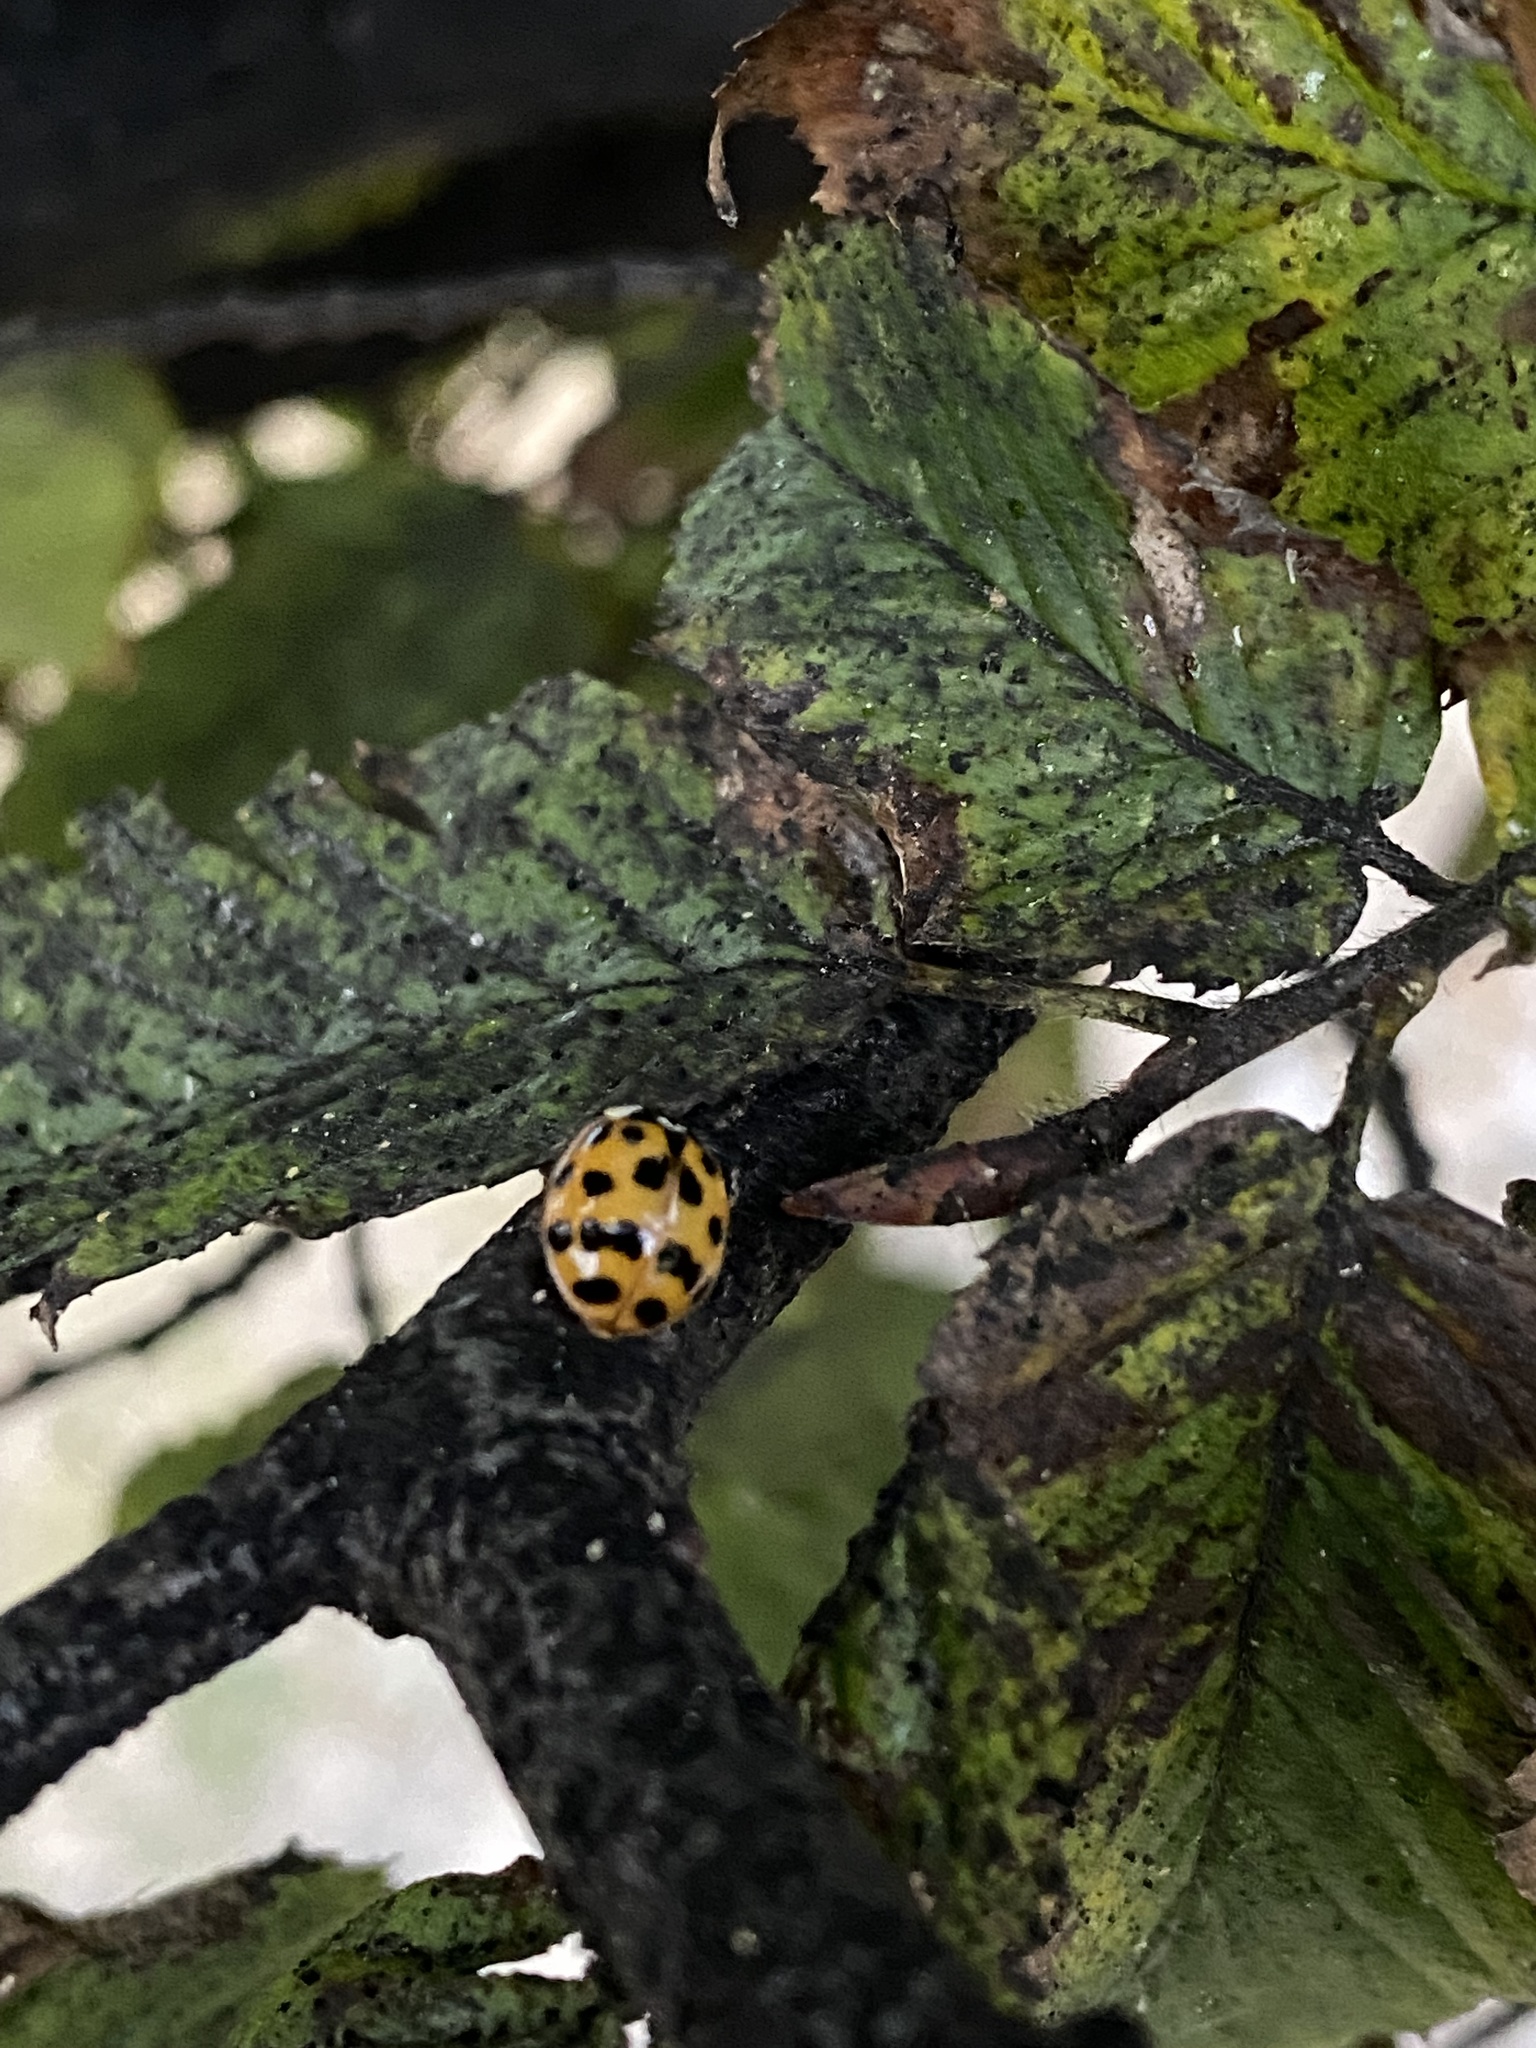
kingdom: Animalia
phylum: Arthropoda
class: Insecta
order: Coleoptera
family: Coccinellidae
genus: Harmonia
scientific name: Harmonia axyridis
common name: Harlequin ladybird
